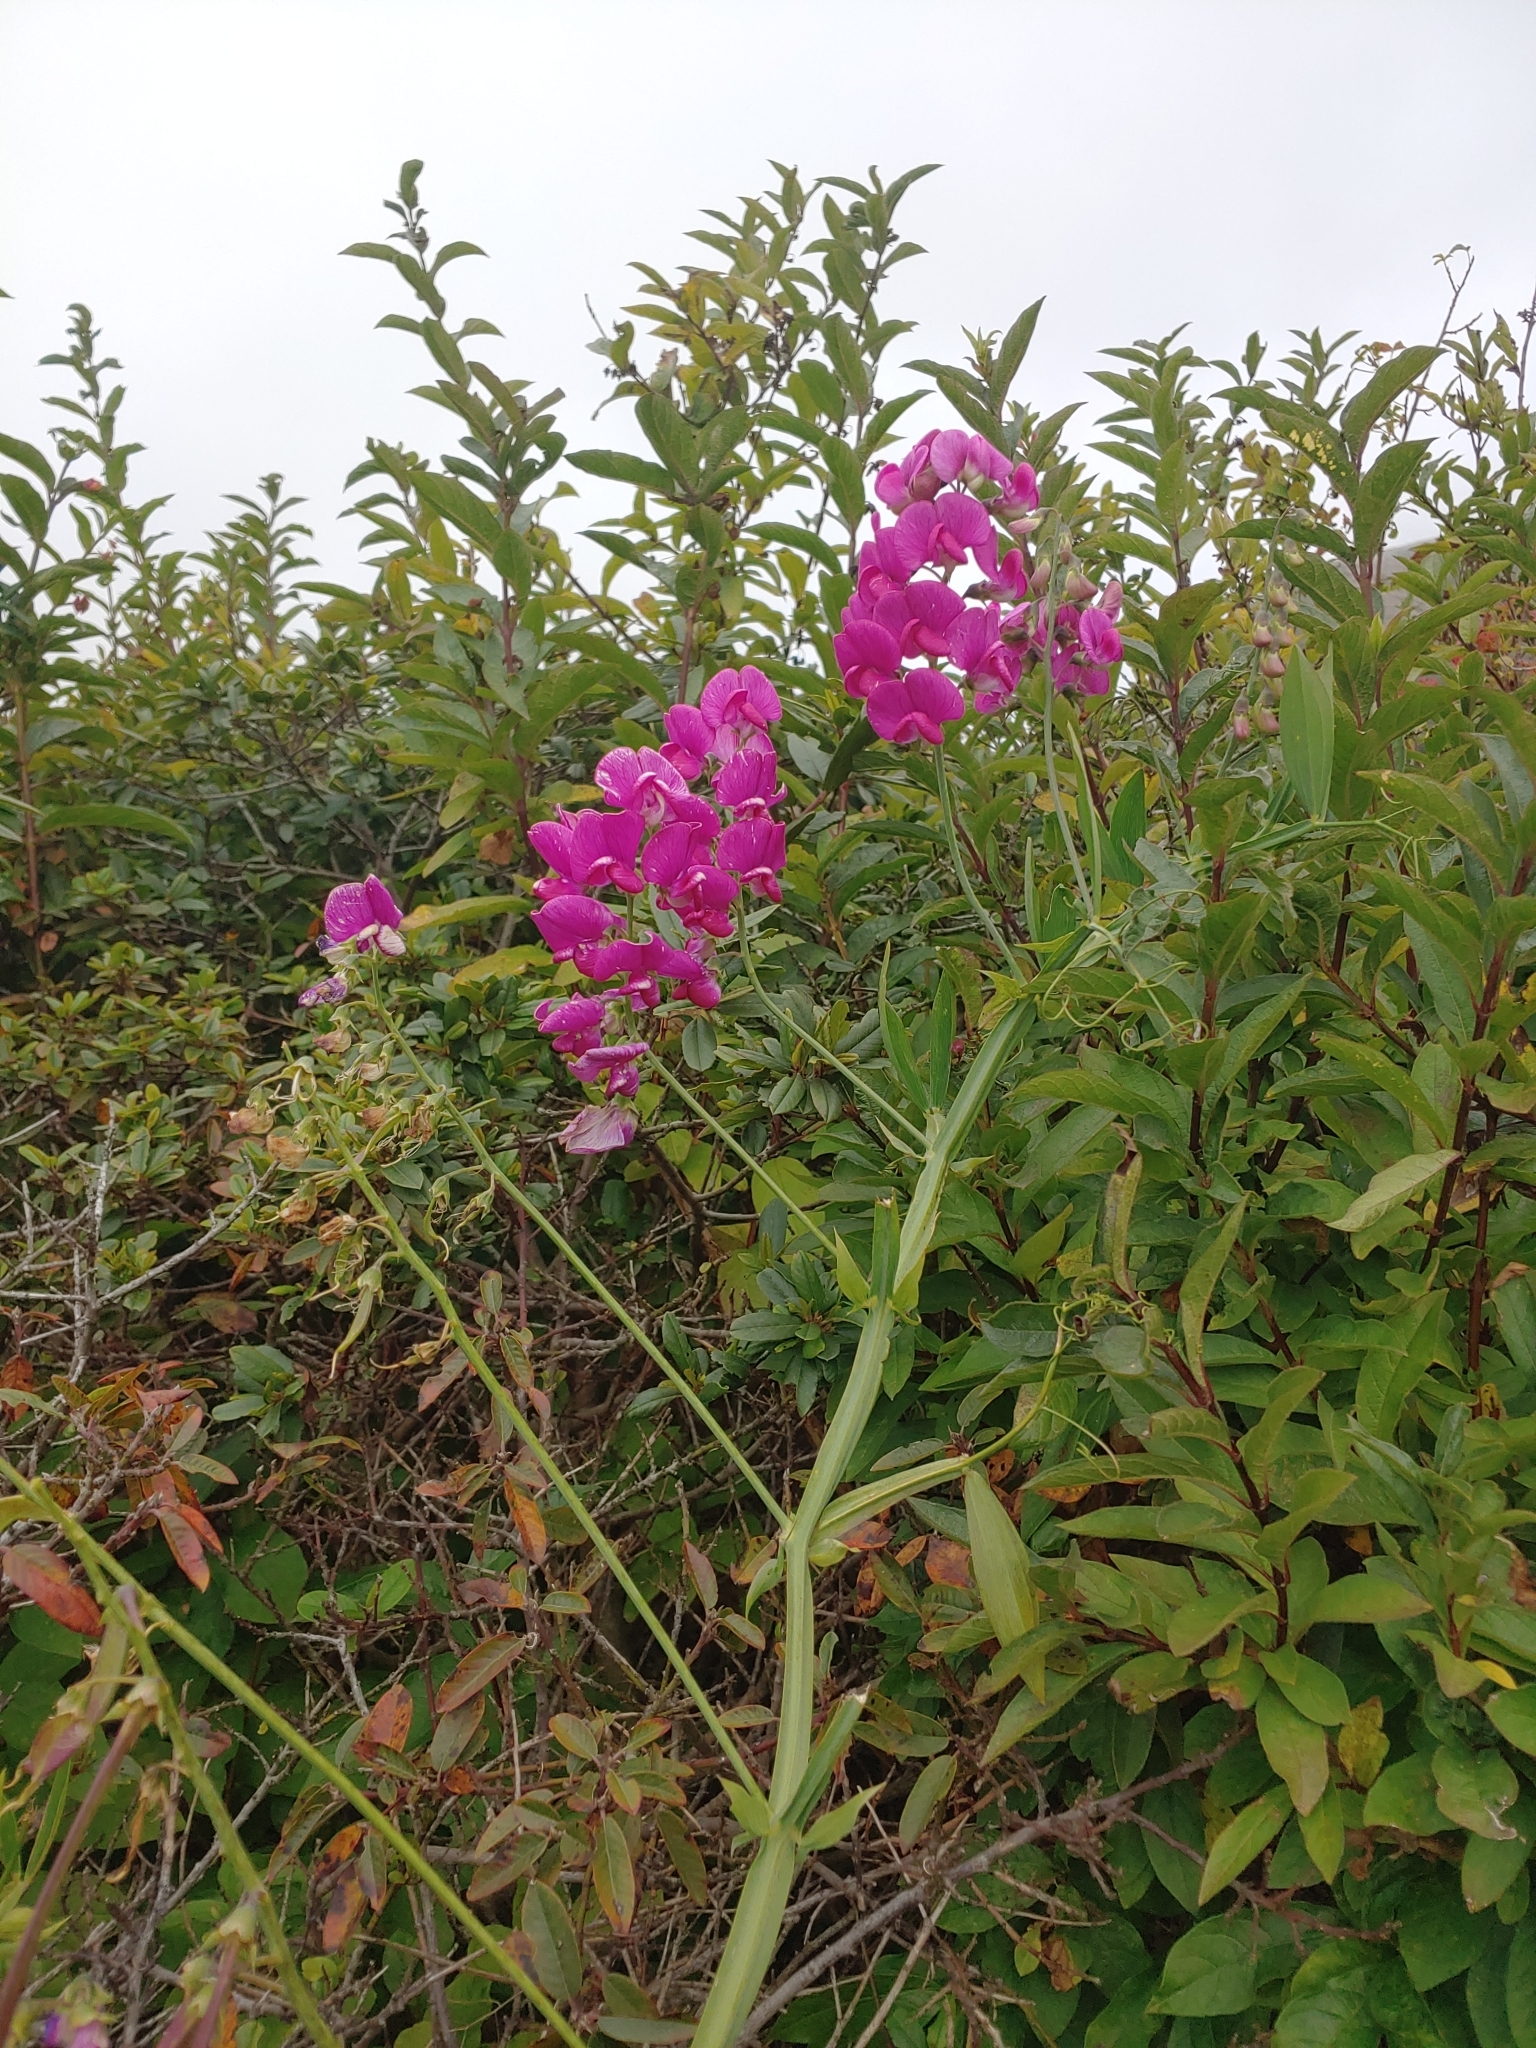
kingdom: Plantae
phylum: Tracheophyta
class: Magnoliopsida
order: Fabales
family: Fabaceae
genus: Lathyrus
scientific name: Lathyrus latifolius
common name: Perennial pea
